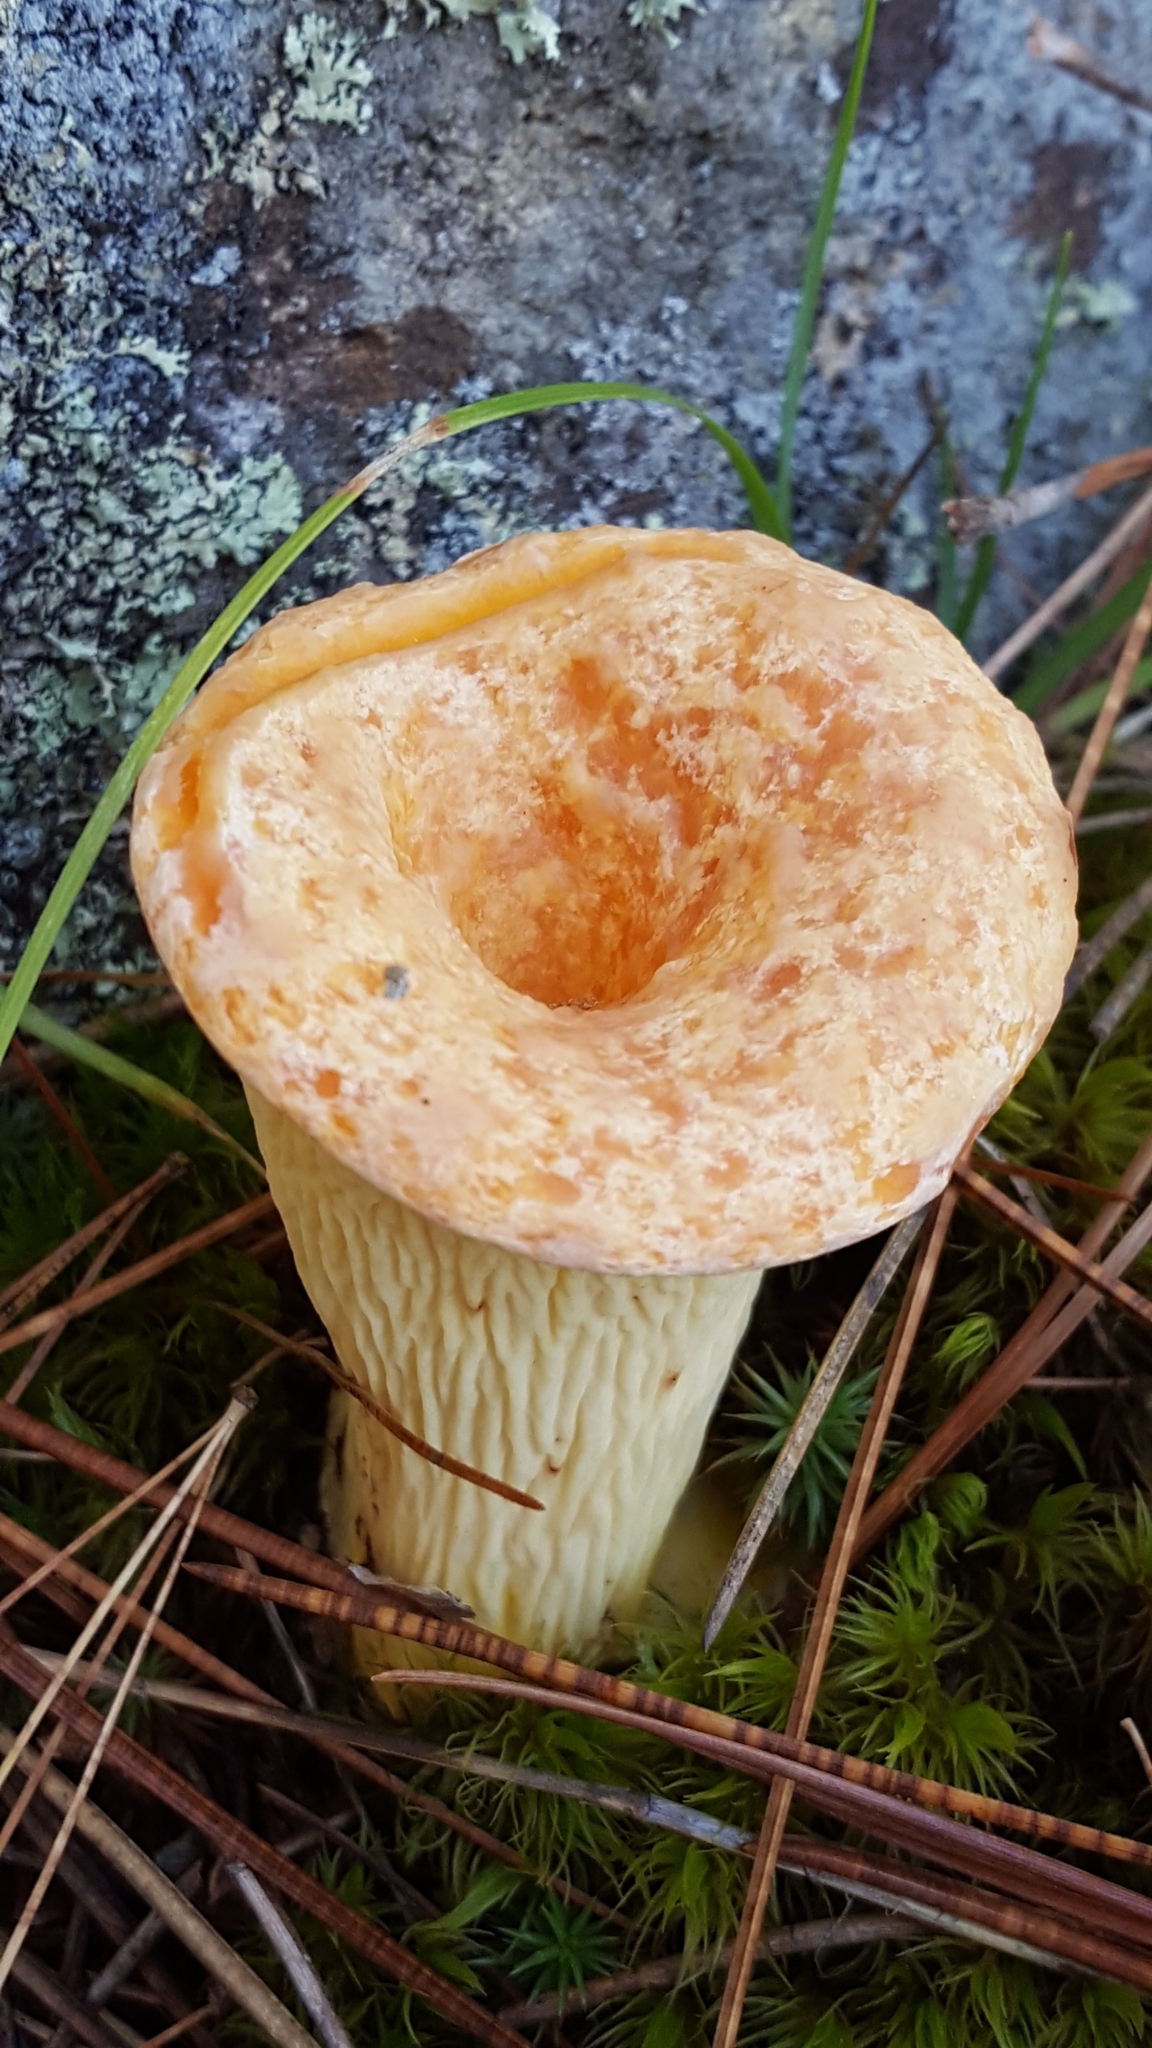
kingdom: Fungi
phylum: Basidiomycota
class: Agaricomycetes
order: Gomphales
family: Gomphaceae
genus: Turbinellus
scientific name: Turbinellus floccosus
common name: Scaly chanterelle
